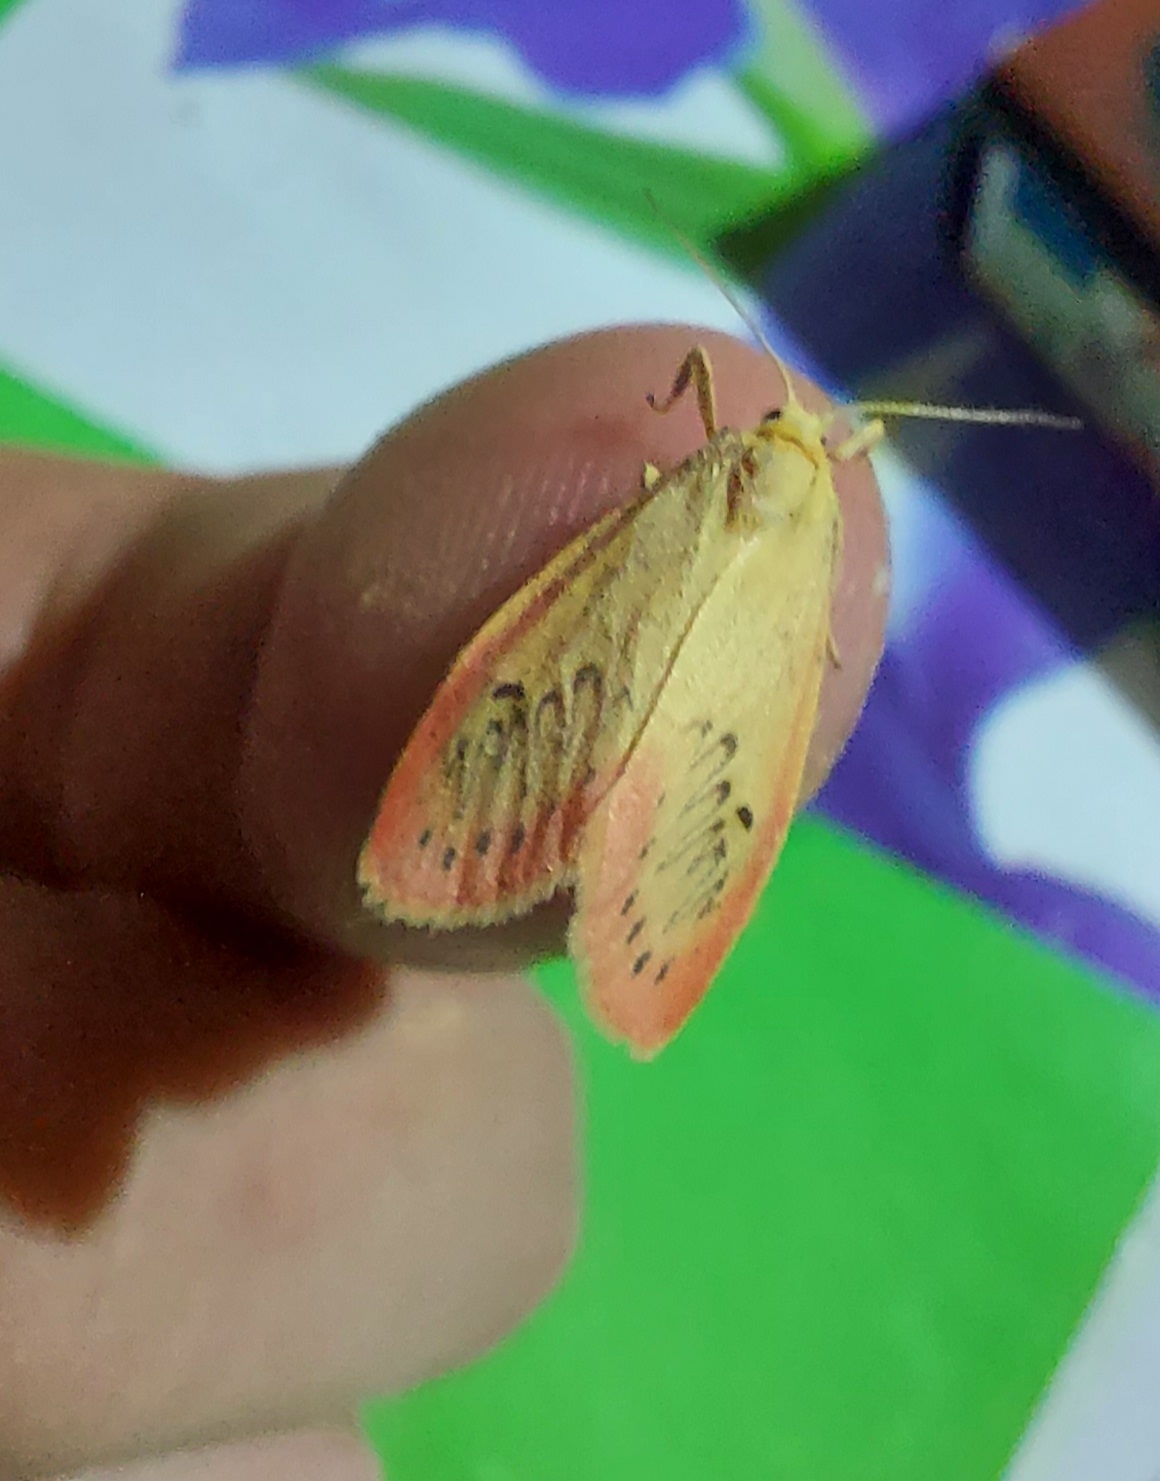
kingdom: Animalia
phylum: Arthropoda
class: Insecta
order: Lepidoptera
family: Erebidae
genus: Miltochrista
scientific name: Miltochrista miniata
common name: Rosy footman
